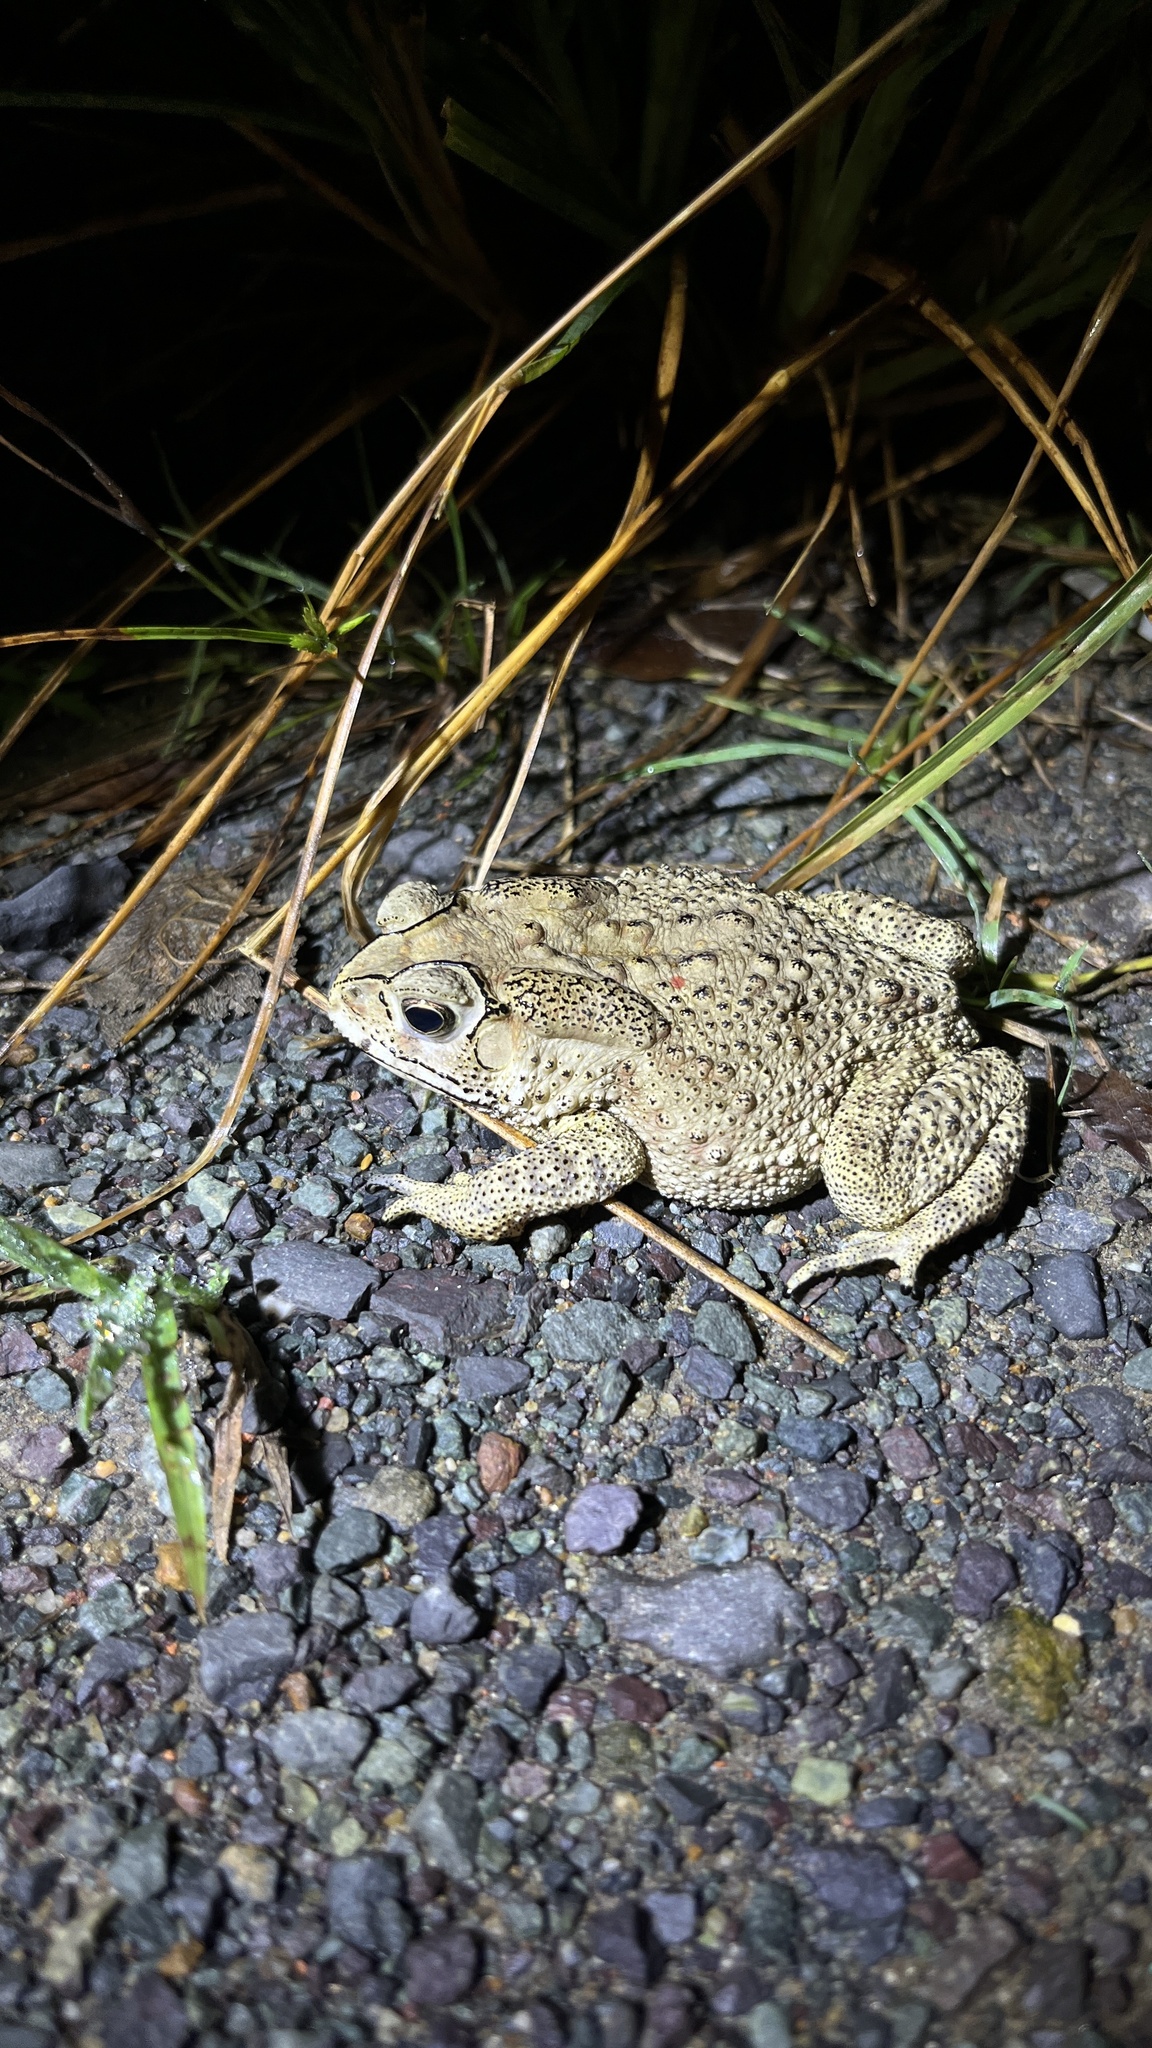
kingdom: Animalia
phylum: Chordata
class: Amphibia
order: Anura
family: Bufonidae
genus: Duttaphrynus
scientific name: Duttaphrynus melanostictus
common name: Common sunda toad
